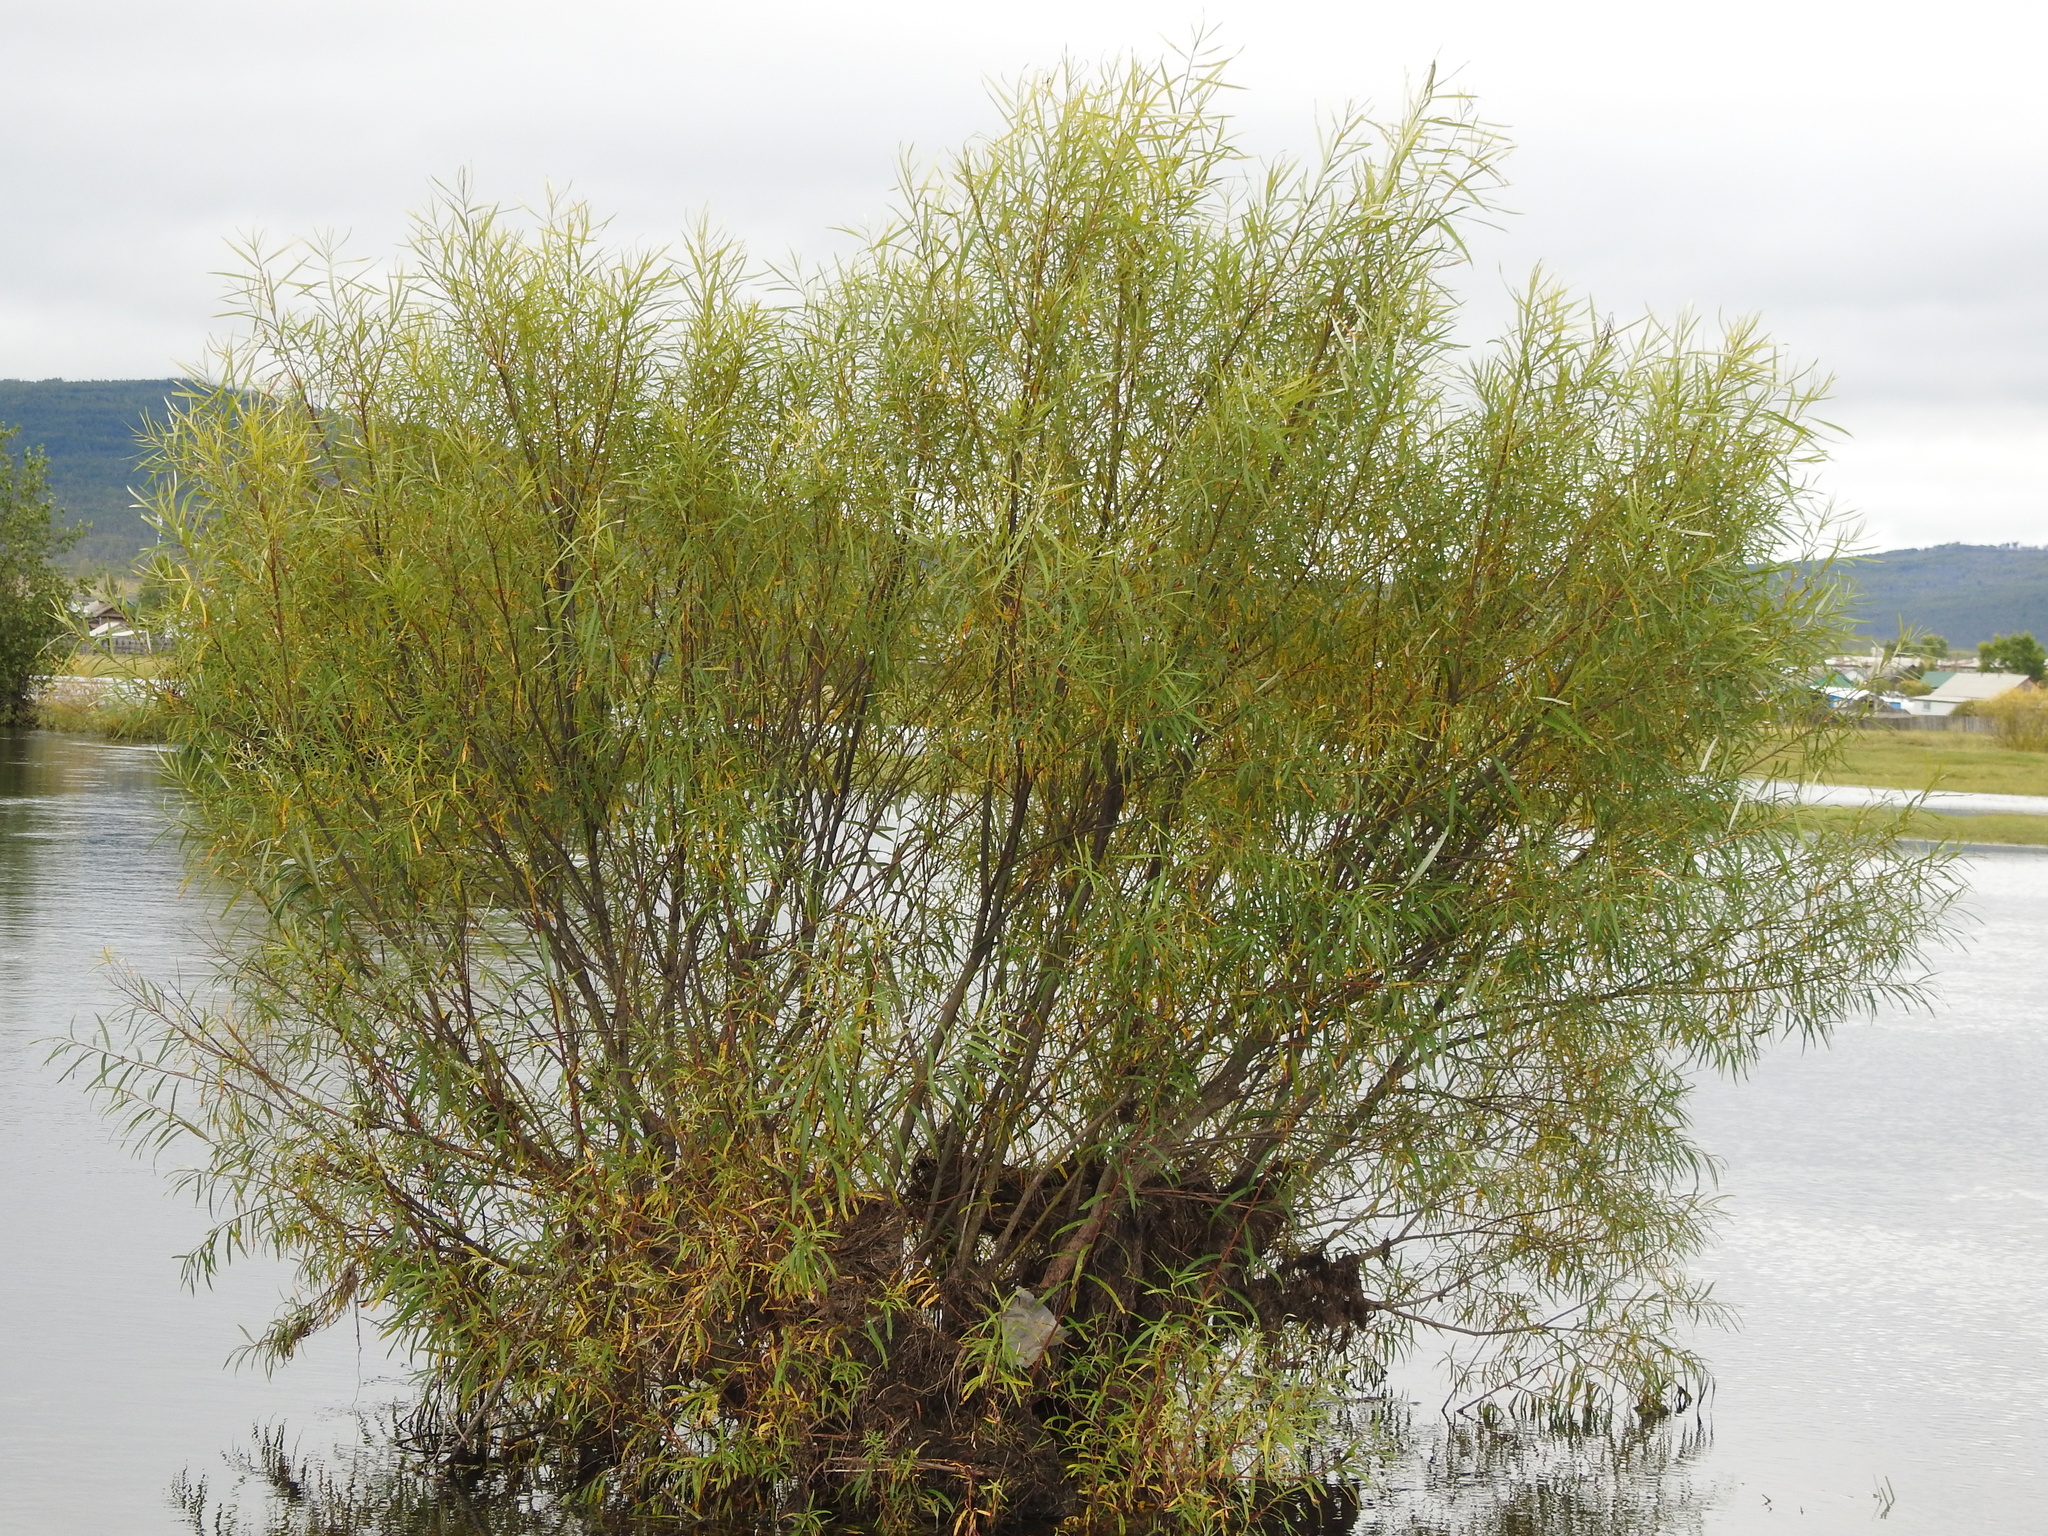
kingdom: Plantae
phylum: Tracheophyta
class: Magnoliopsida
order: Malpighiales
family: Salicaceae
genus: Salix
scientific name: Salix schwerinii
